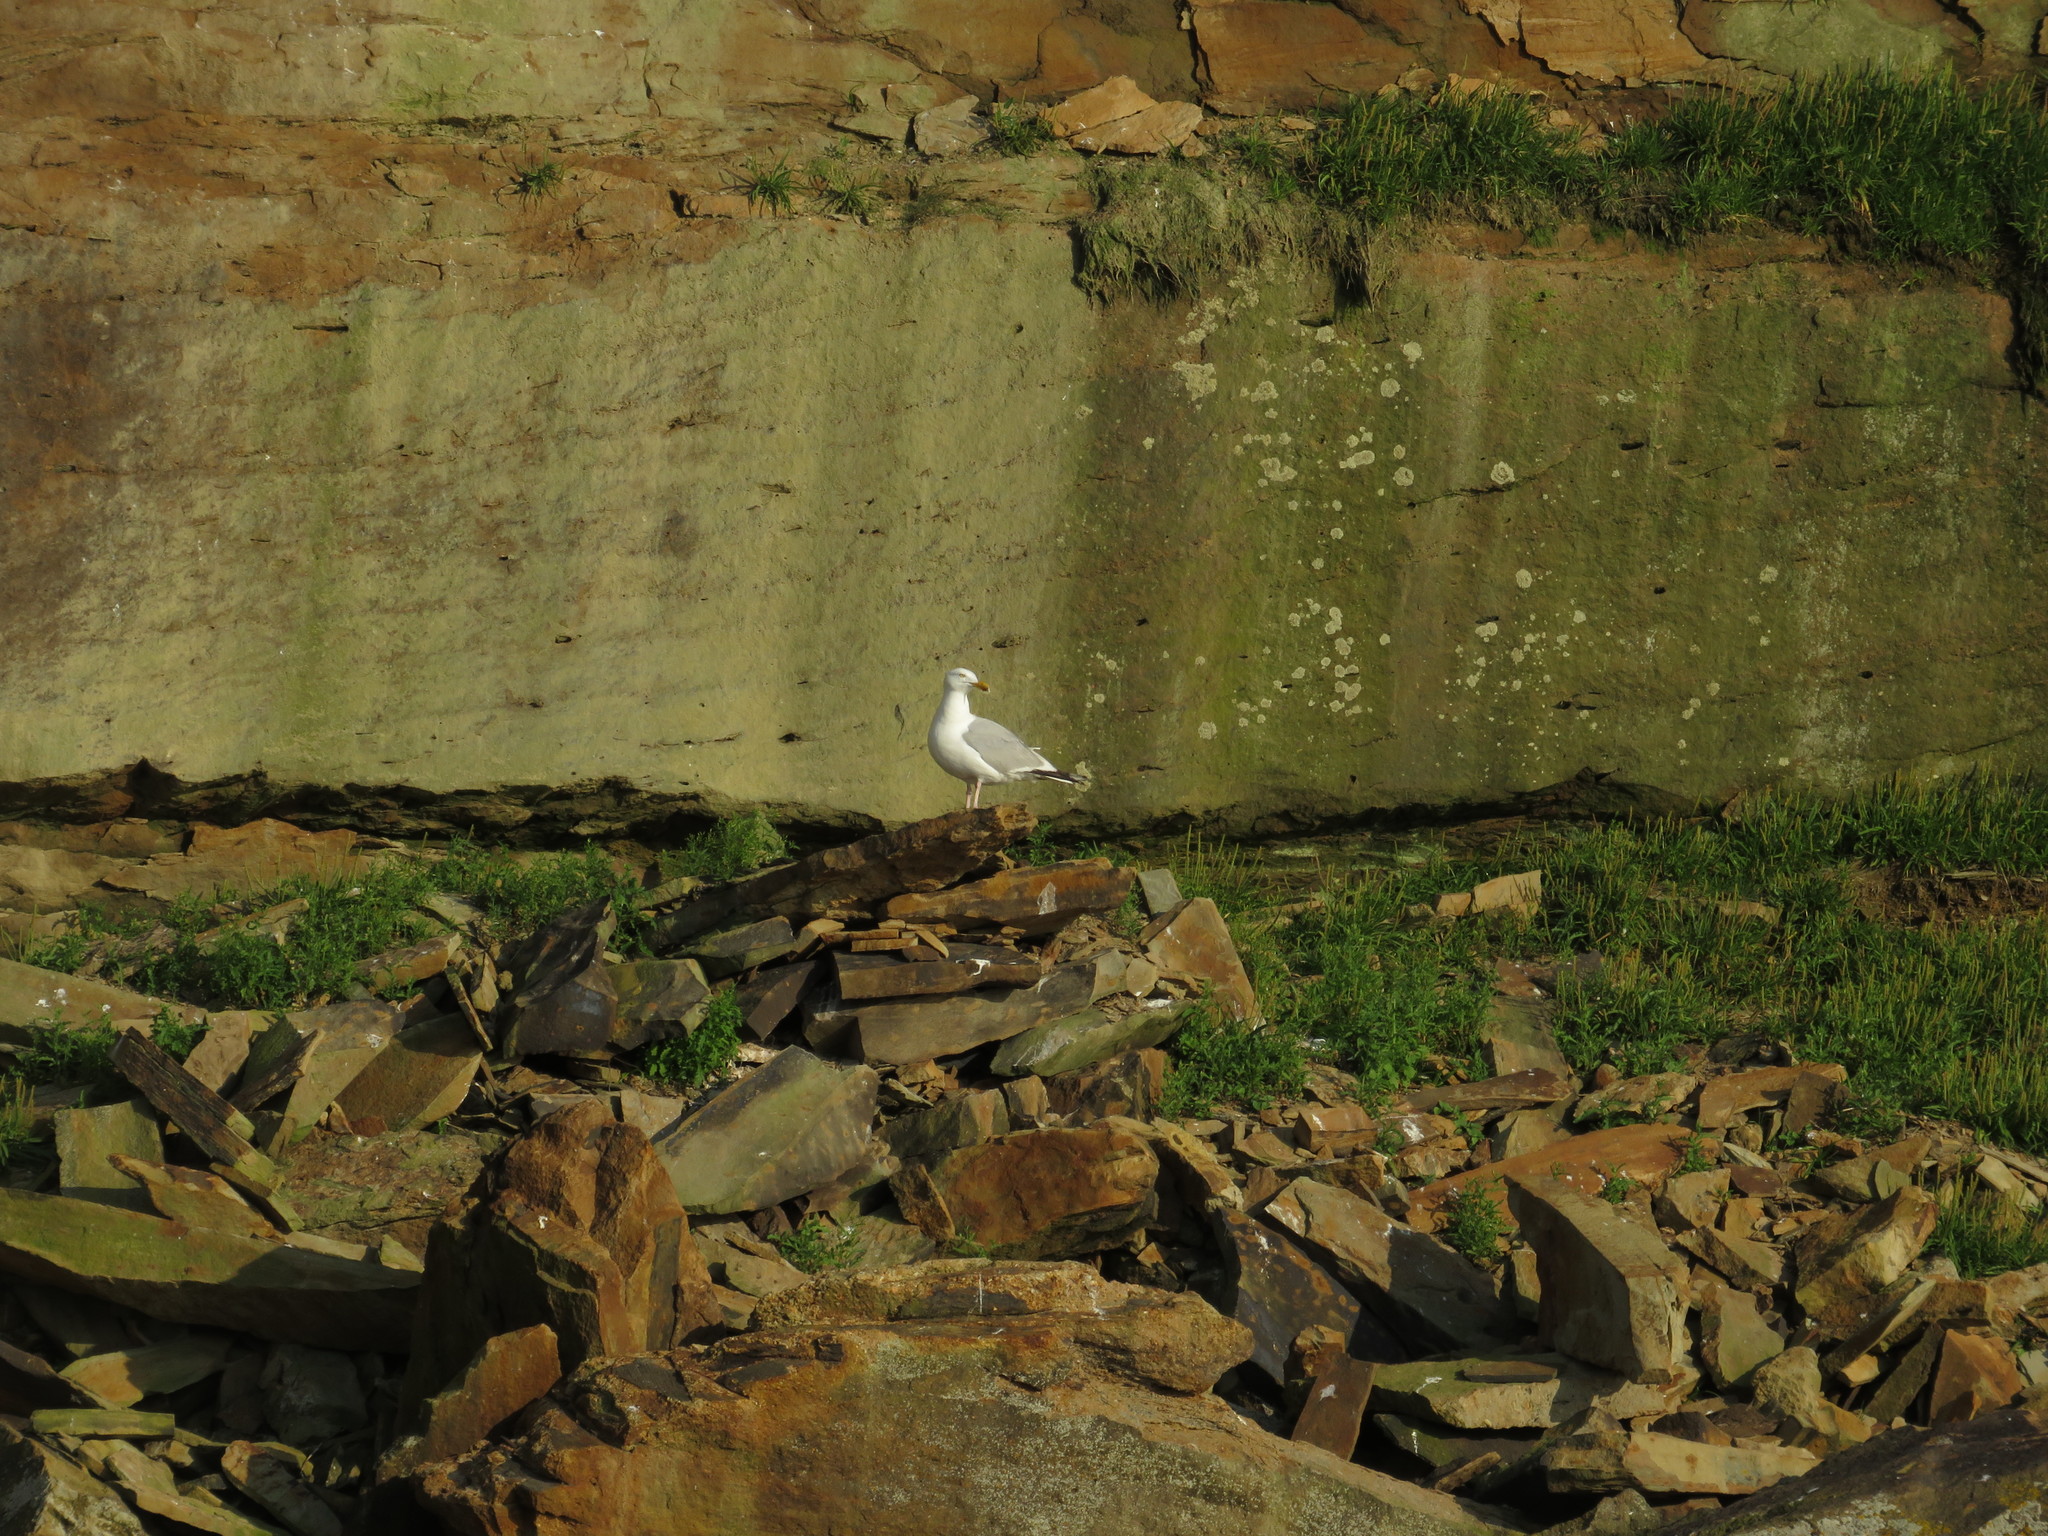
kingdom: Animalia
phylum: Chordata
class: Aves
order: Charadriiformes
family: Laridae
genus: Larus
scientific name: Larus argentatus
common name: Herring gull
